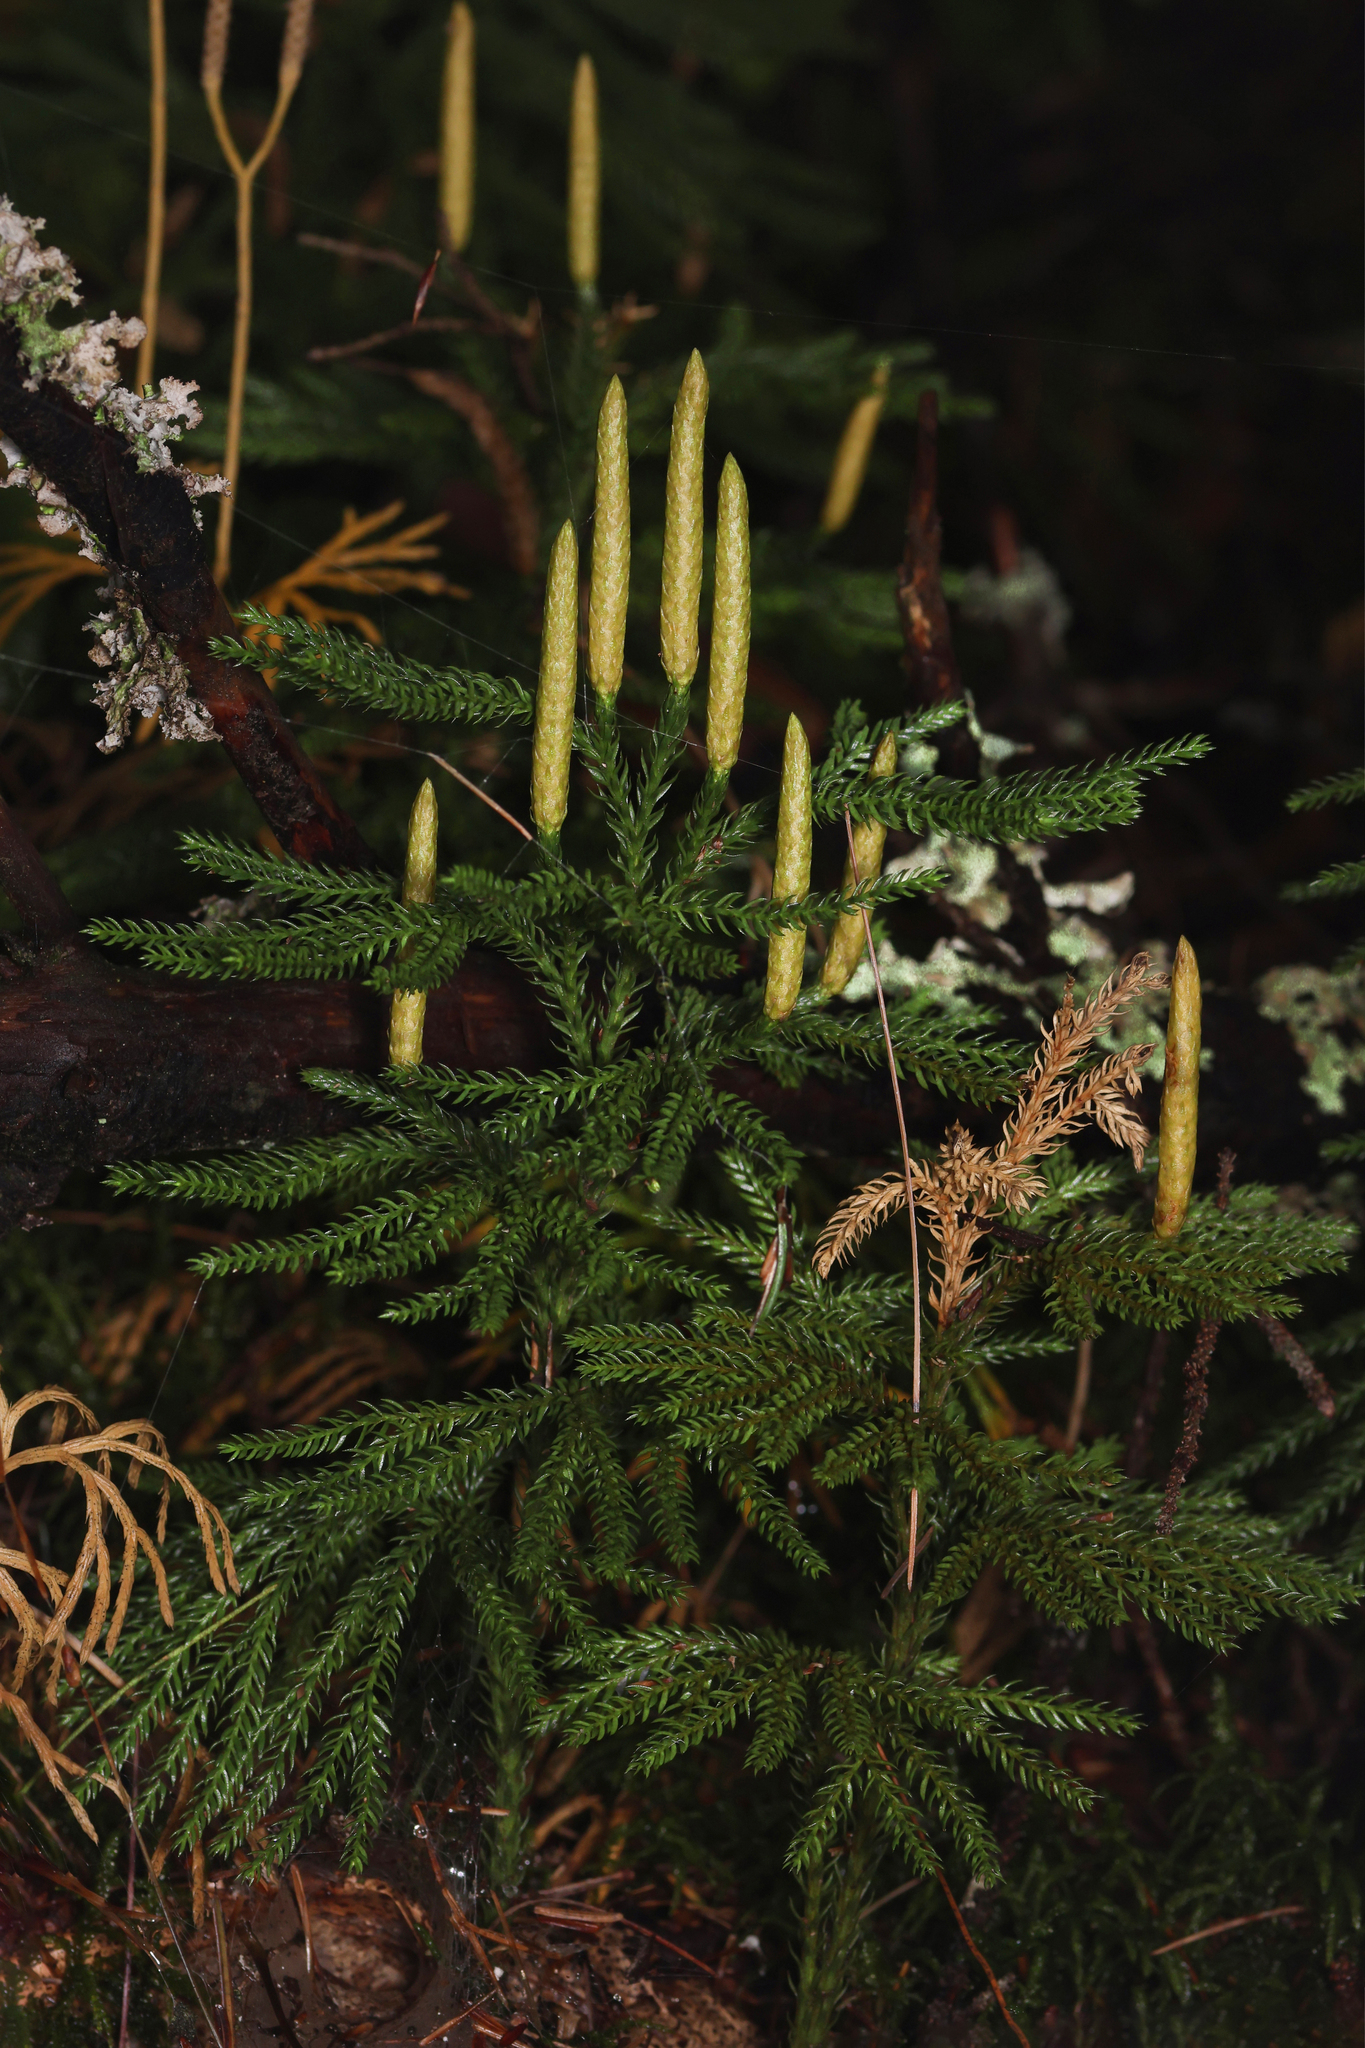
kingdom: Plantae
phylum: Tracheophyta
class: Lycopodiopsida
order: Lycopodiales
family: Lycopodiaceae
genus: Dendrolycopodium
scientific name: Dendrolycopodium obscurum
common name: Common ground-pine
